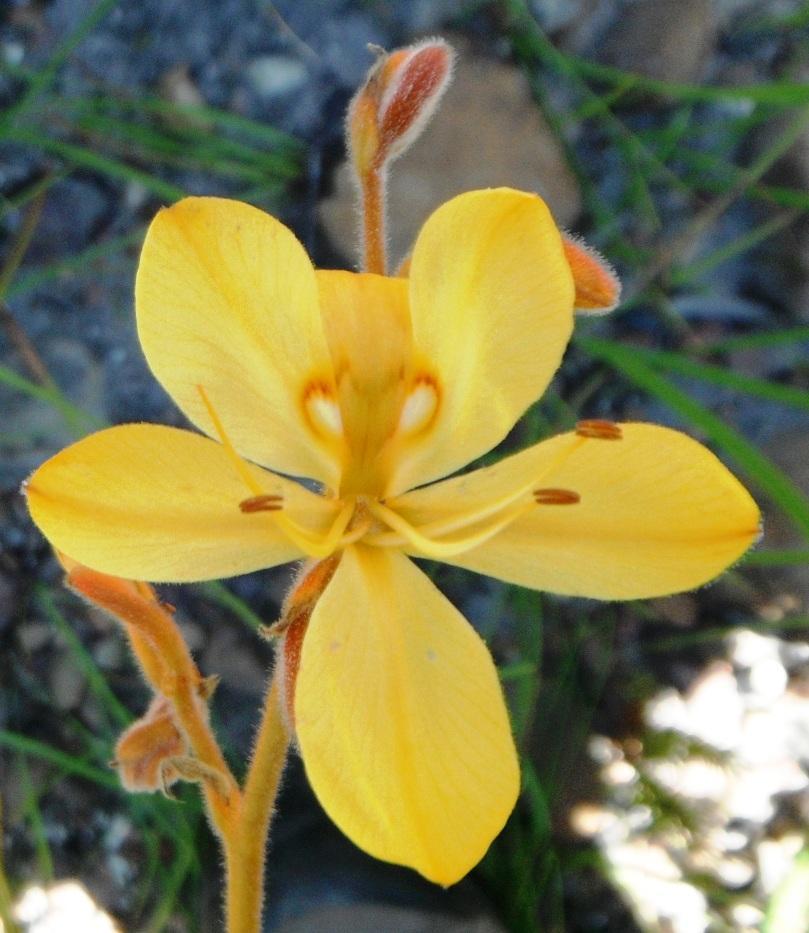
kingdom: Plantae
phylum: Tracheophyta
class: Liliopsida
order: Commelinales
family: Haemodoraceae
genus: Wachendorfia
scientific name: Wachendorfia paniculata
